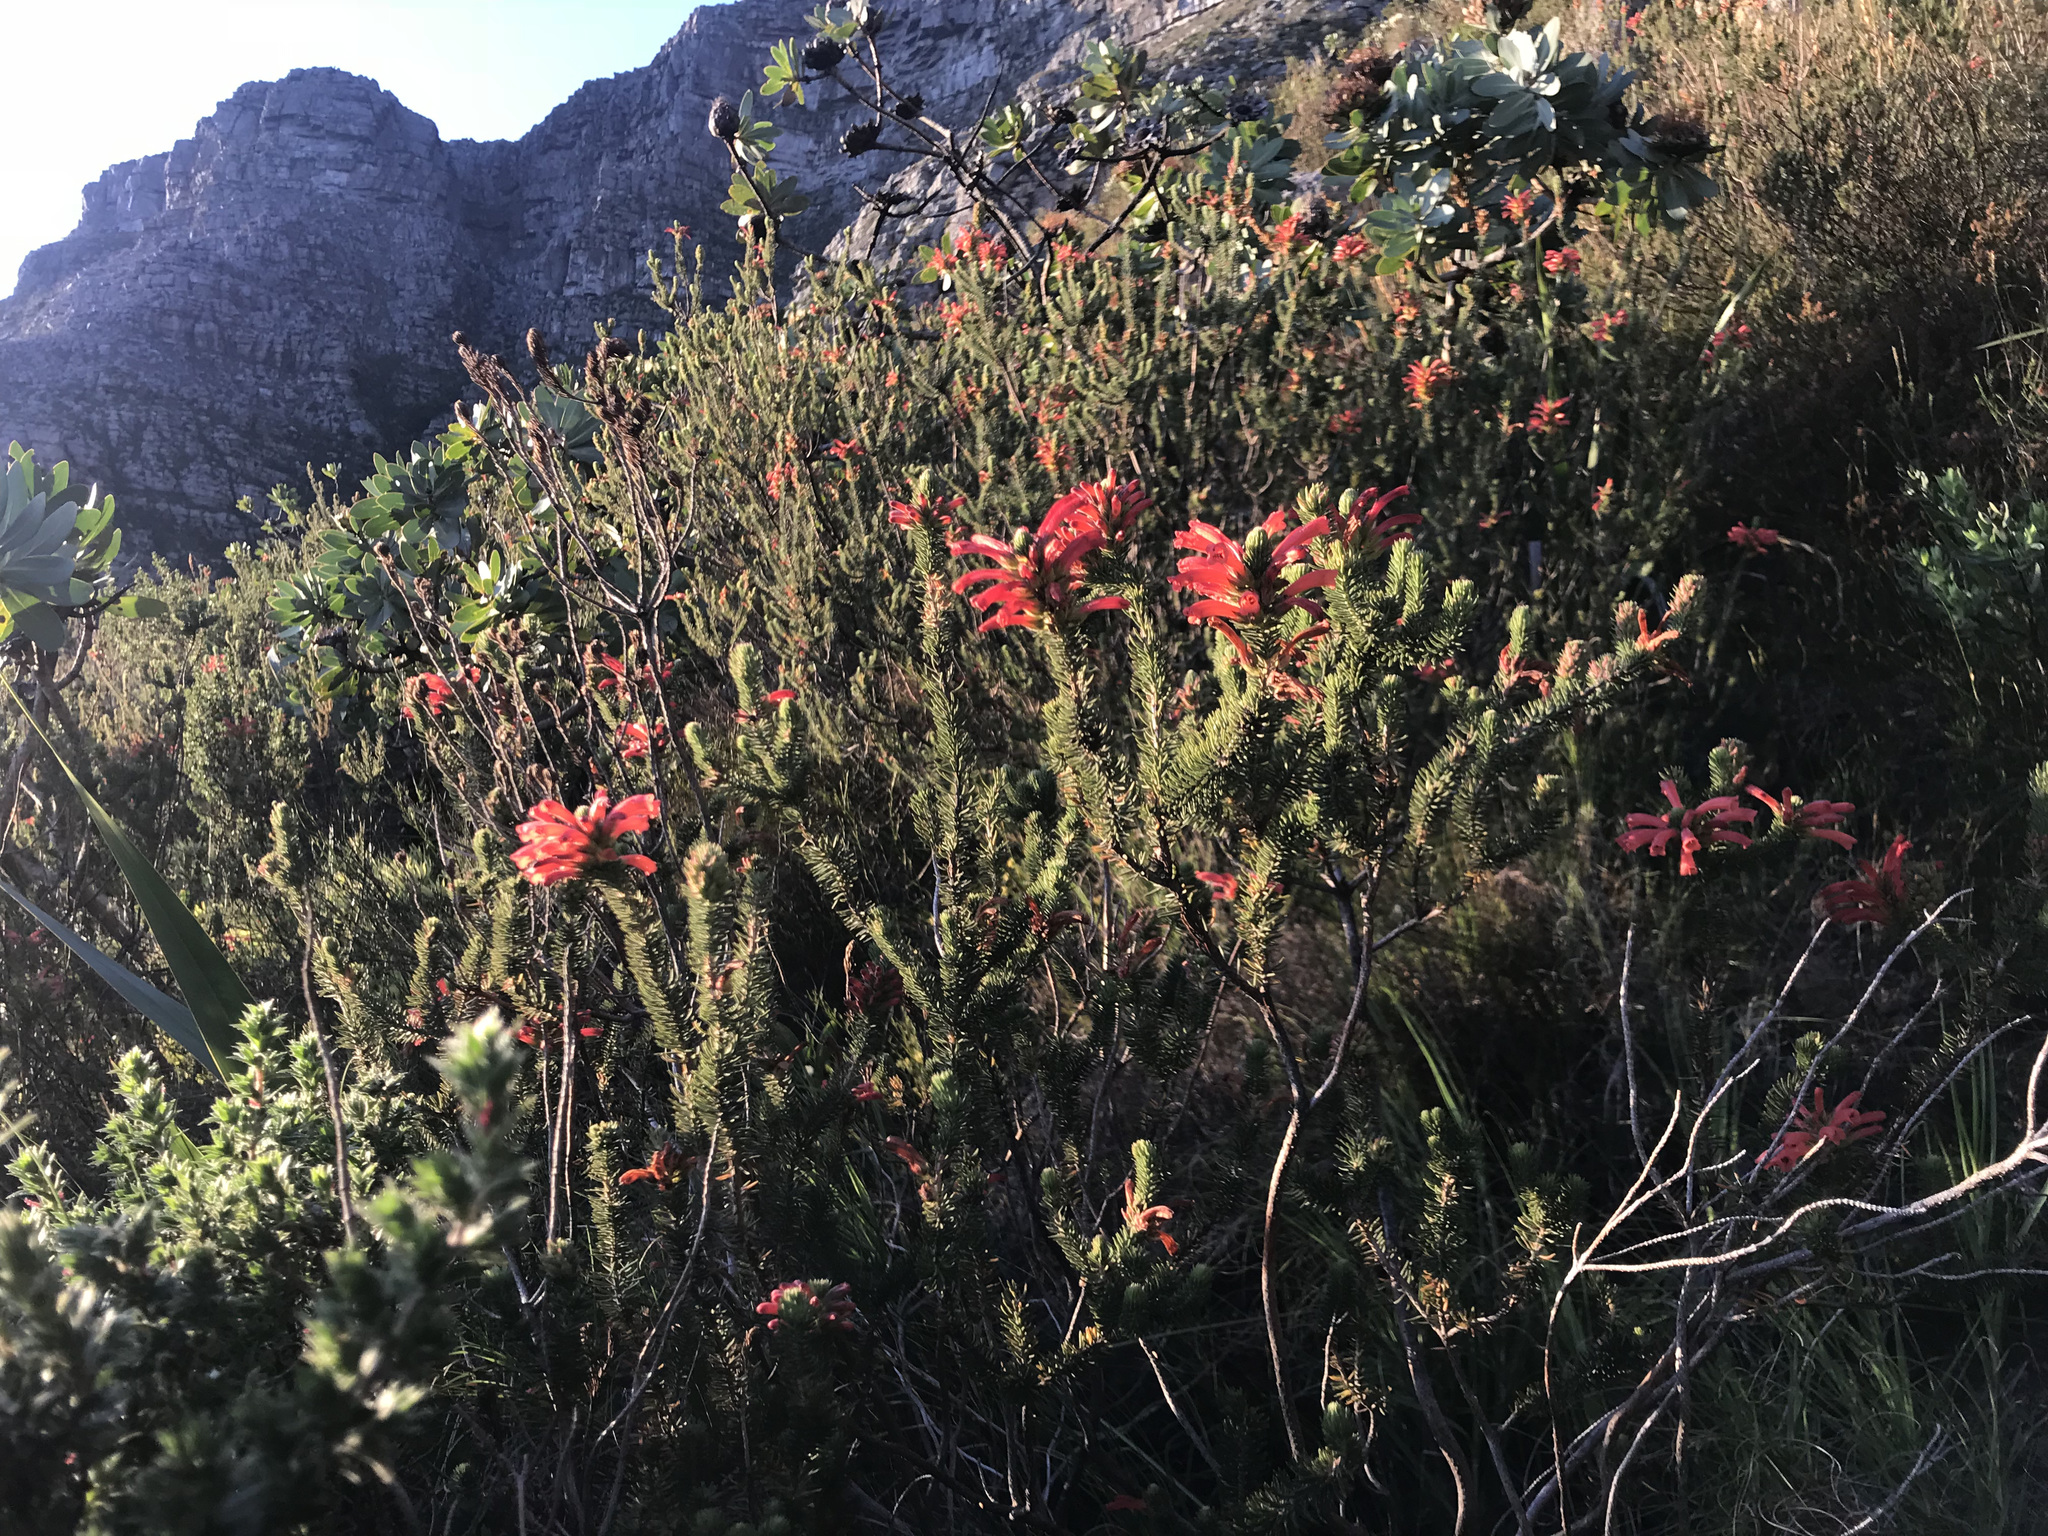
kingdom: Plantae
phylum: Tracheophyta
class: Magnoliopsida
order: Ericales
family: Ericaceae
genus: Erica
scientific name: Erica abietina
